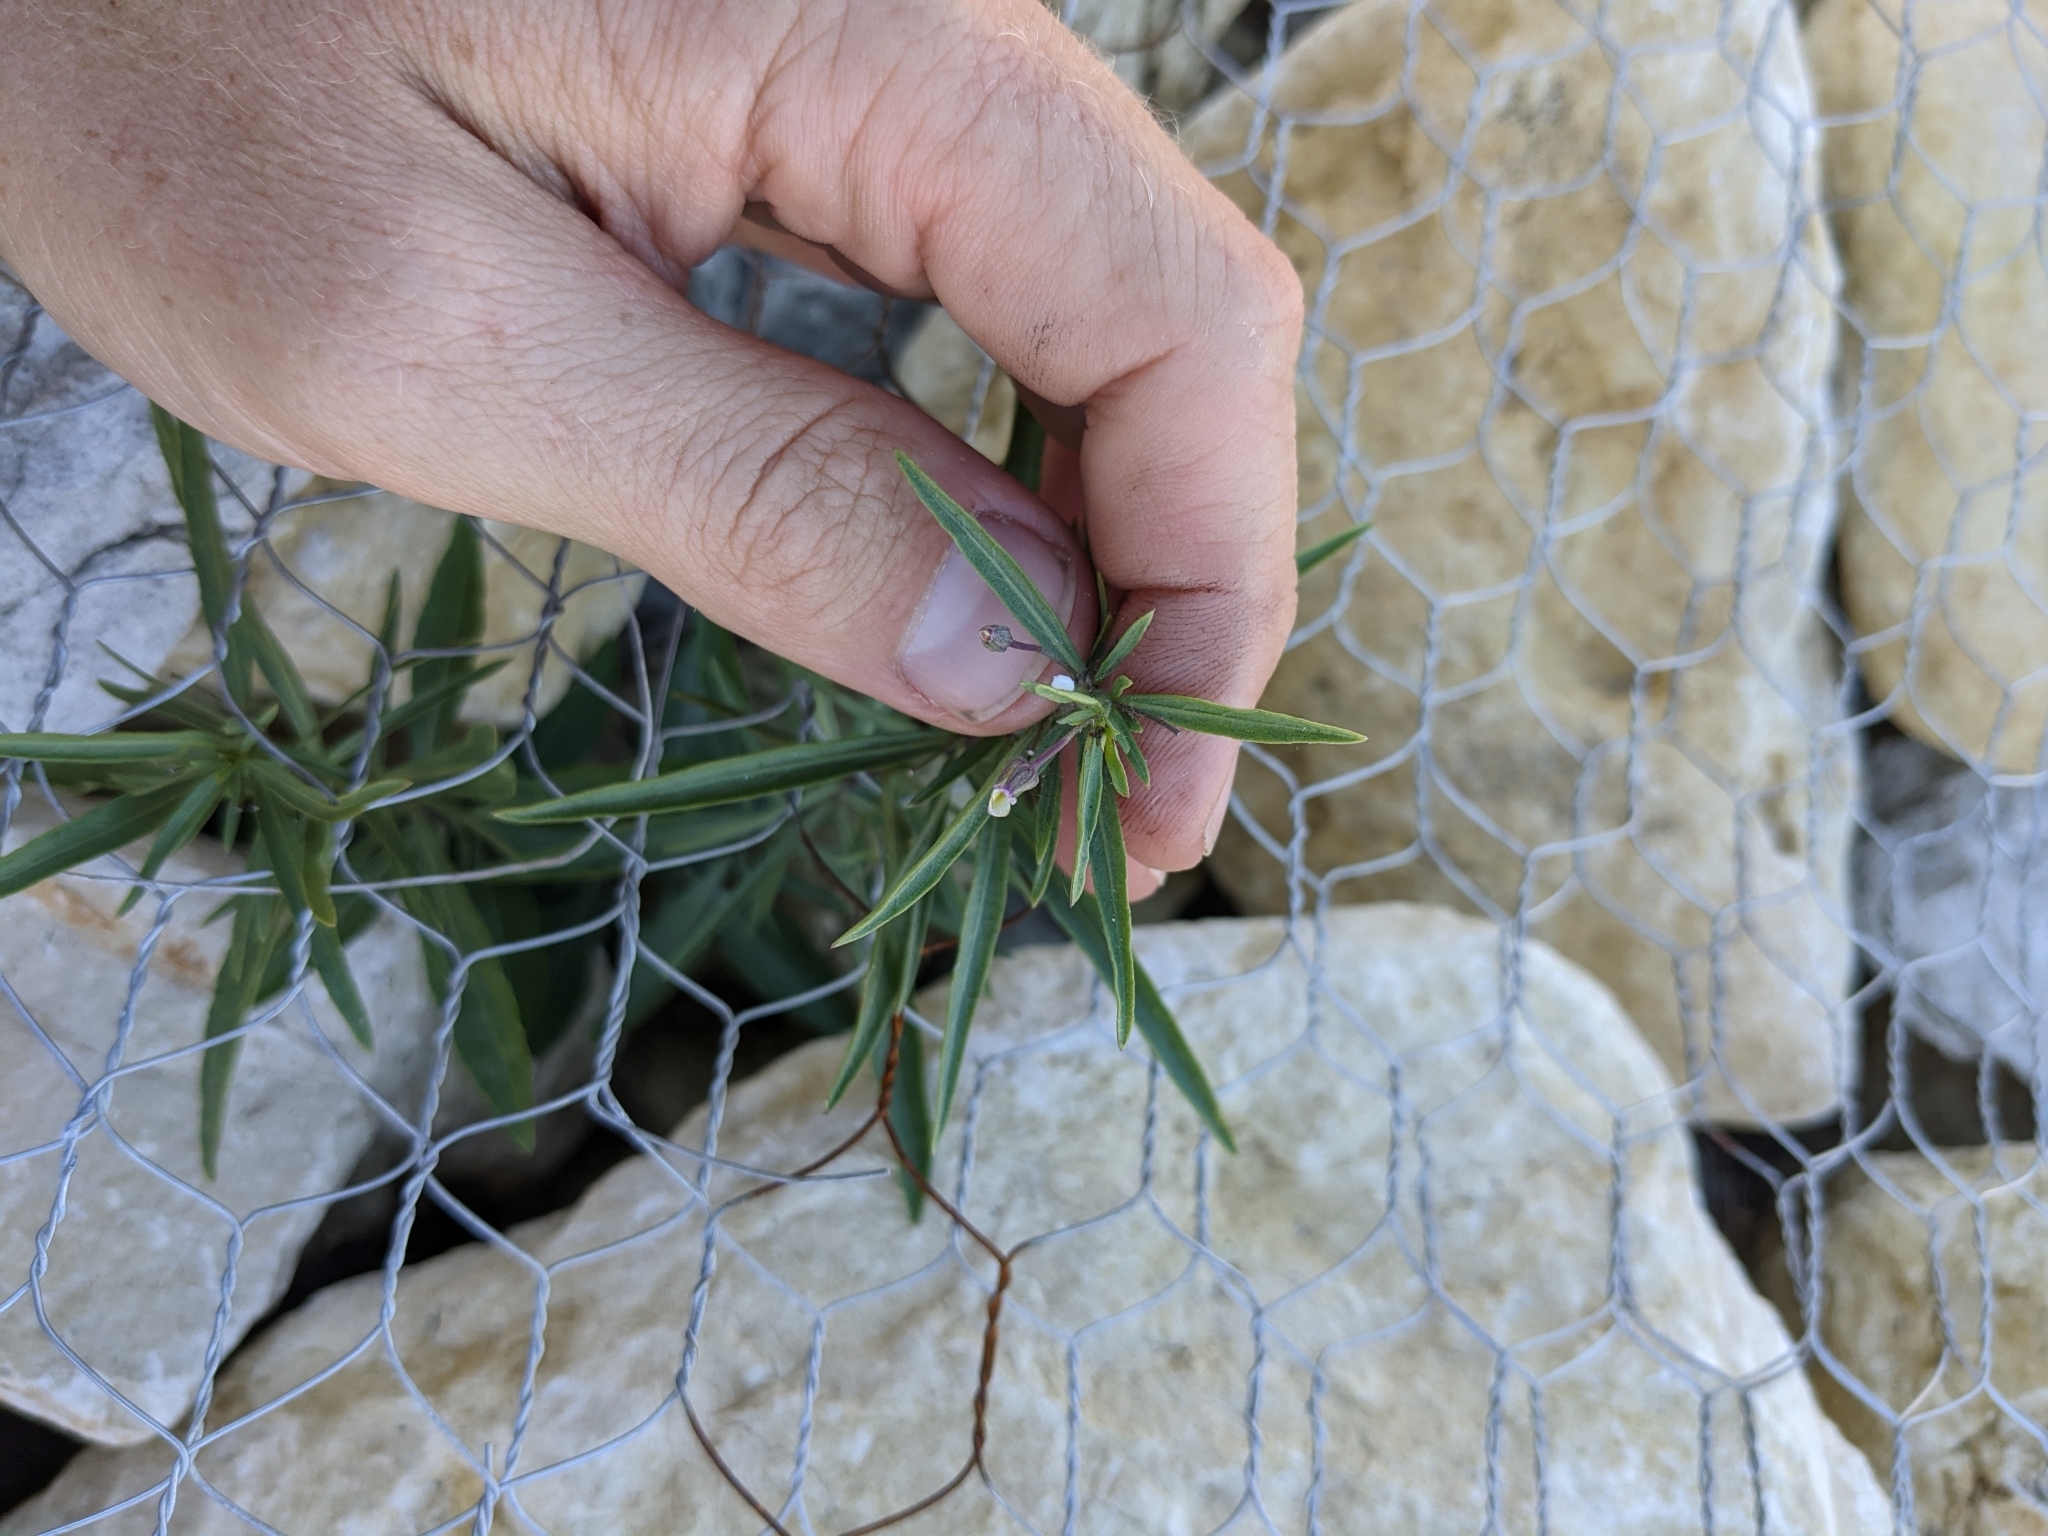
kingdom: Plantae
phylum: Tracheophyta
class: Magnoliopsida
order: Malpighiales
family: Violaceae
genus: Pombalia
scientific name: Pombalia verticillata
